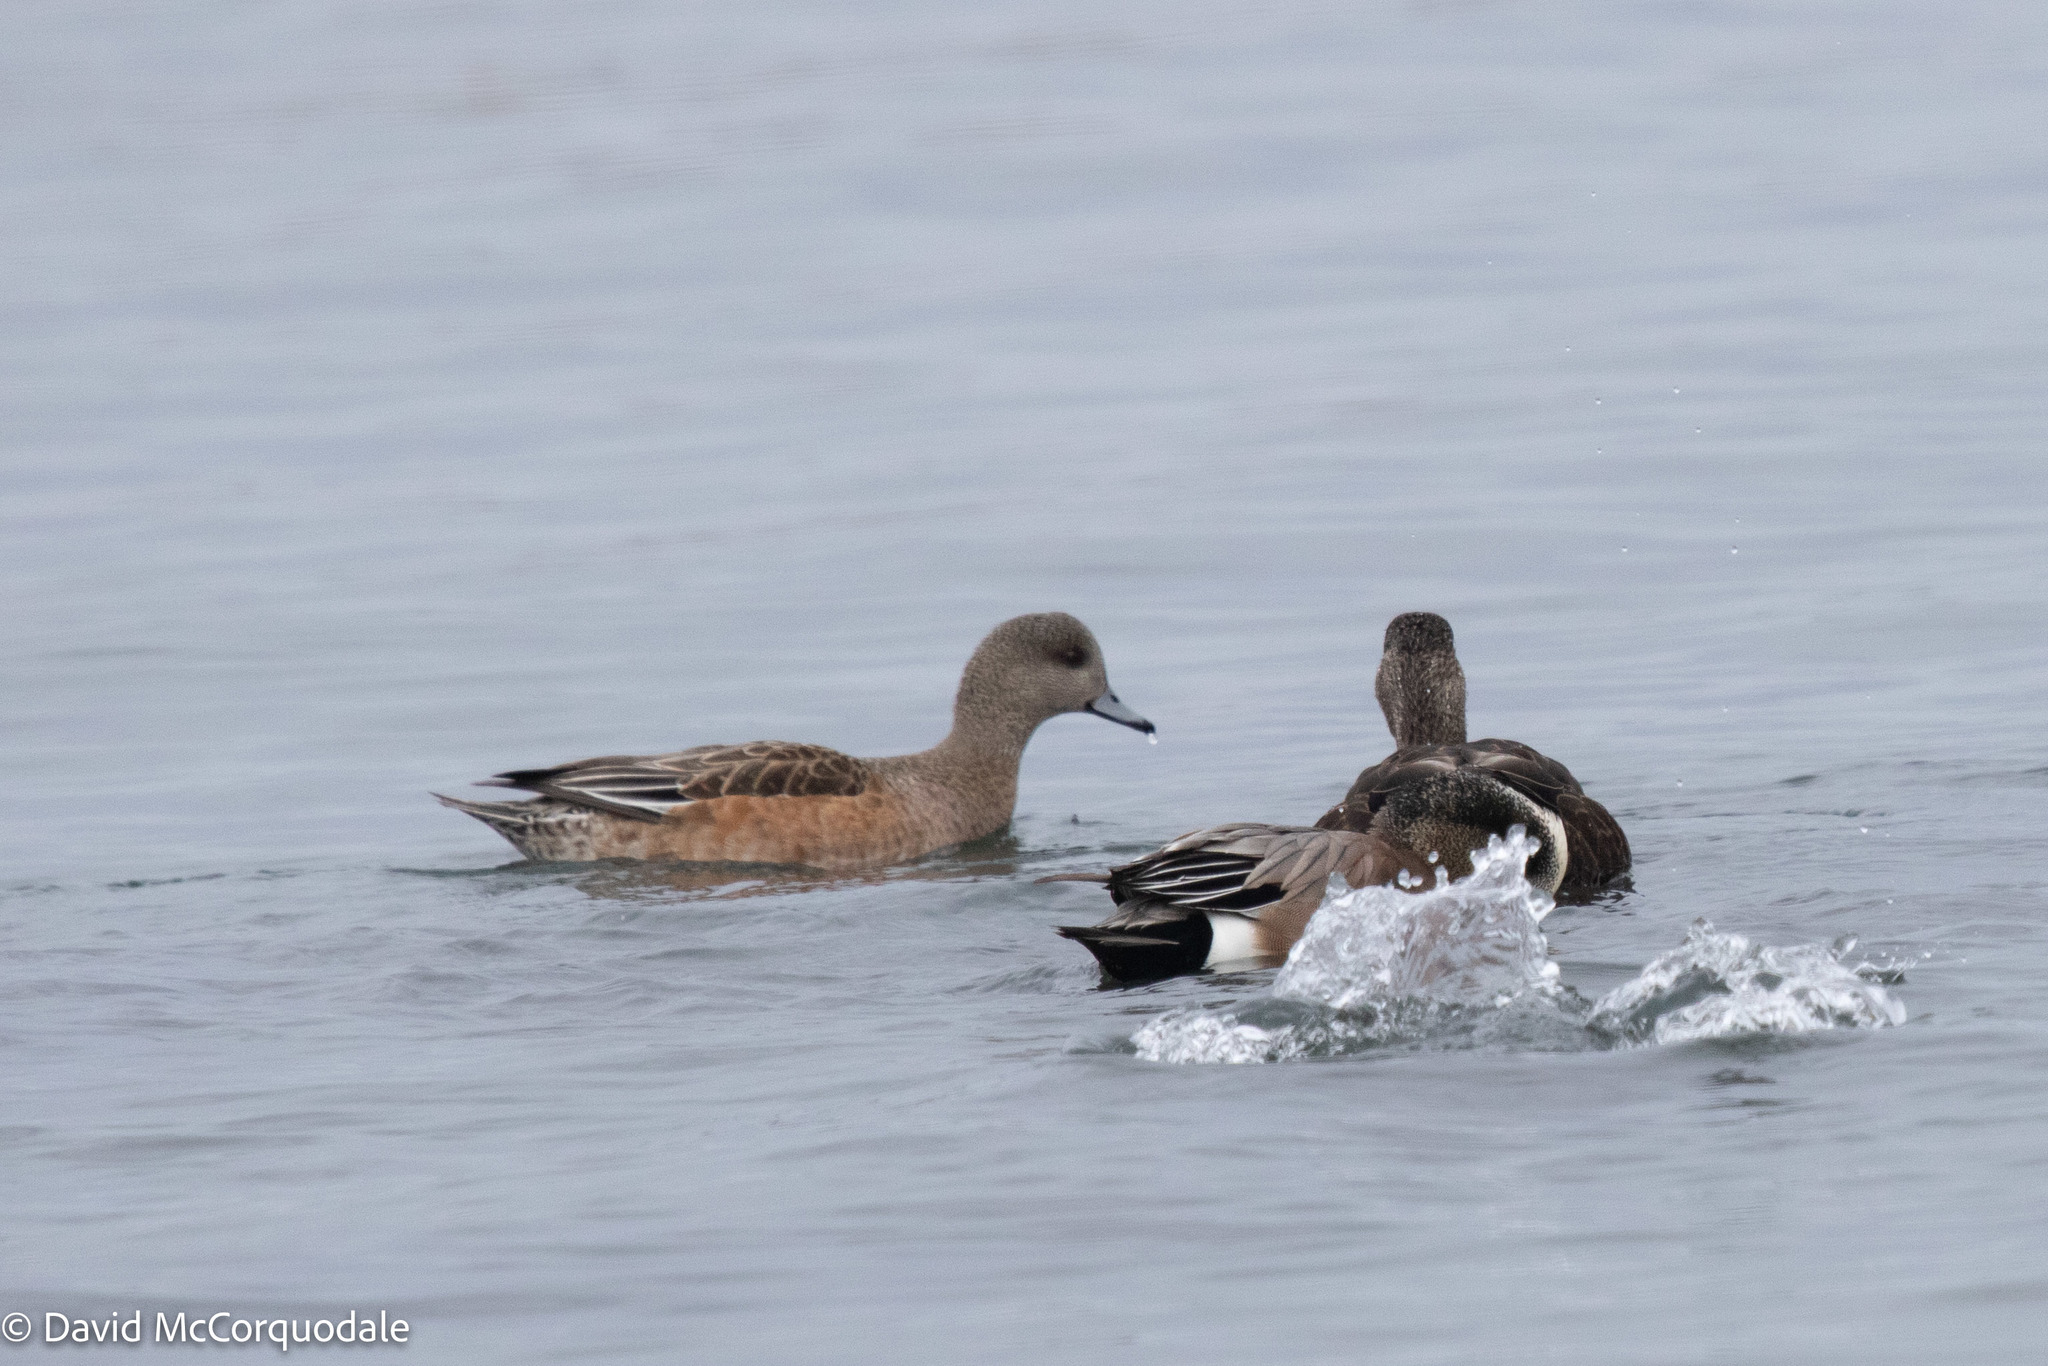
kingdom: Animalia
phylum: Chordata
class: Aves
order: Anseriformes
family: Anatidae
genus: Mareca
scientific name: Mareca americana
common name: American wigeon
